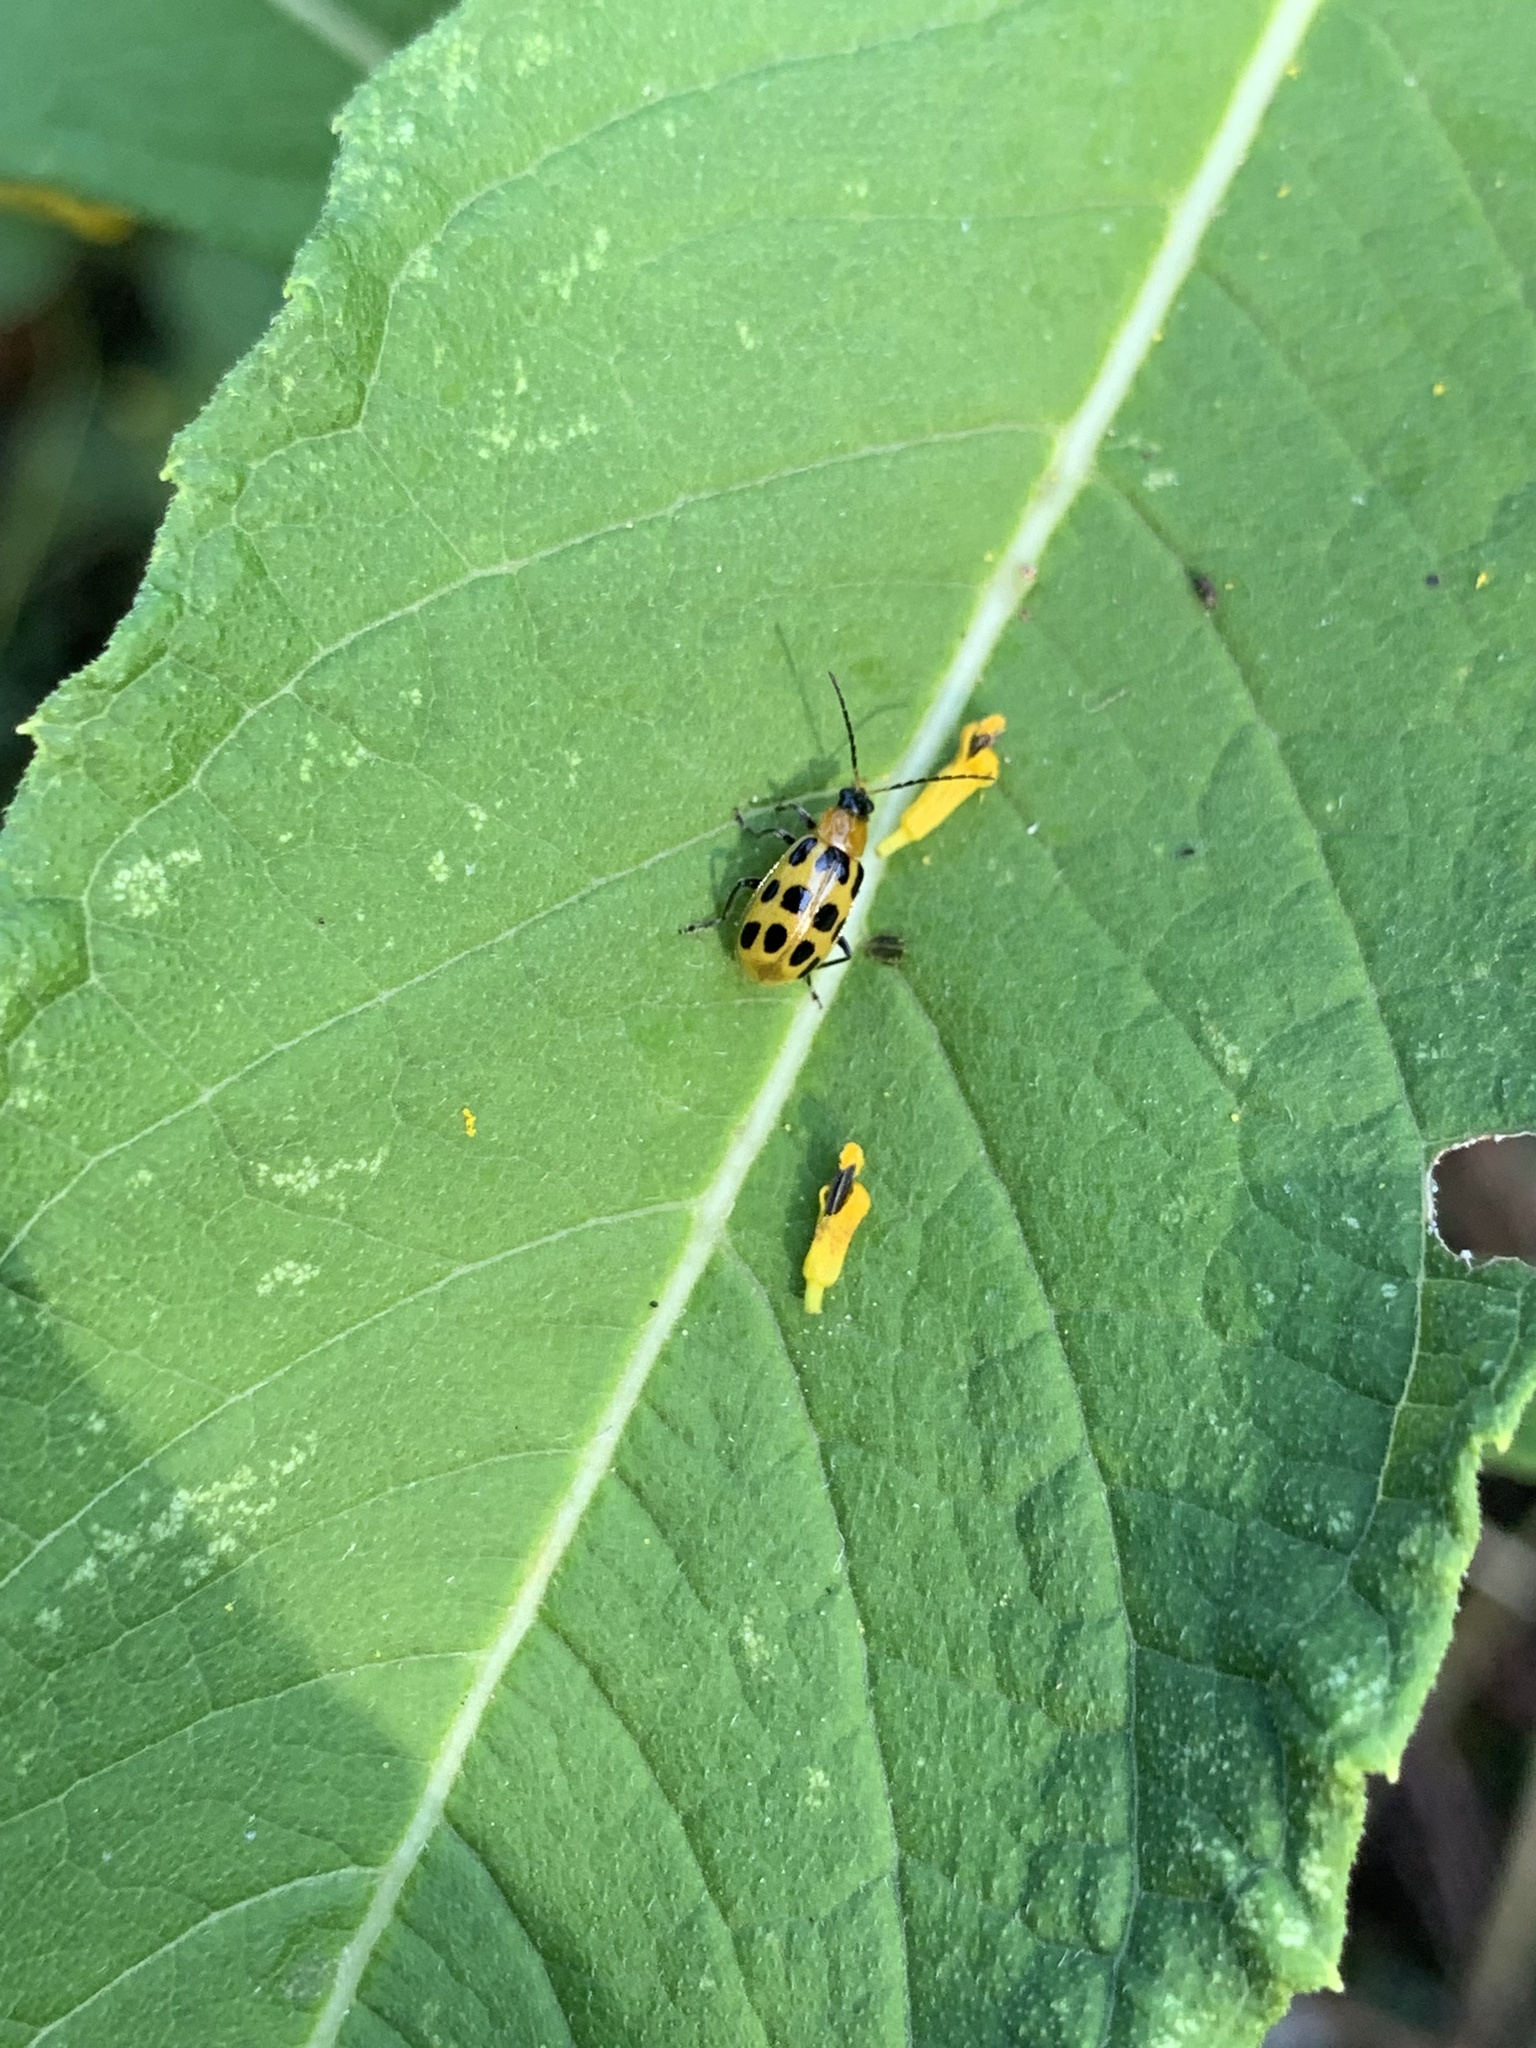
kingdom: Animalia
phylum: Arthropoda
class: Insecta
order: Coleoptera
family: Chrysomelidae
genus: Diabrotica
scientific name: Diabrotica undecimpunctata
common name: Spotted cucumber beetle
